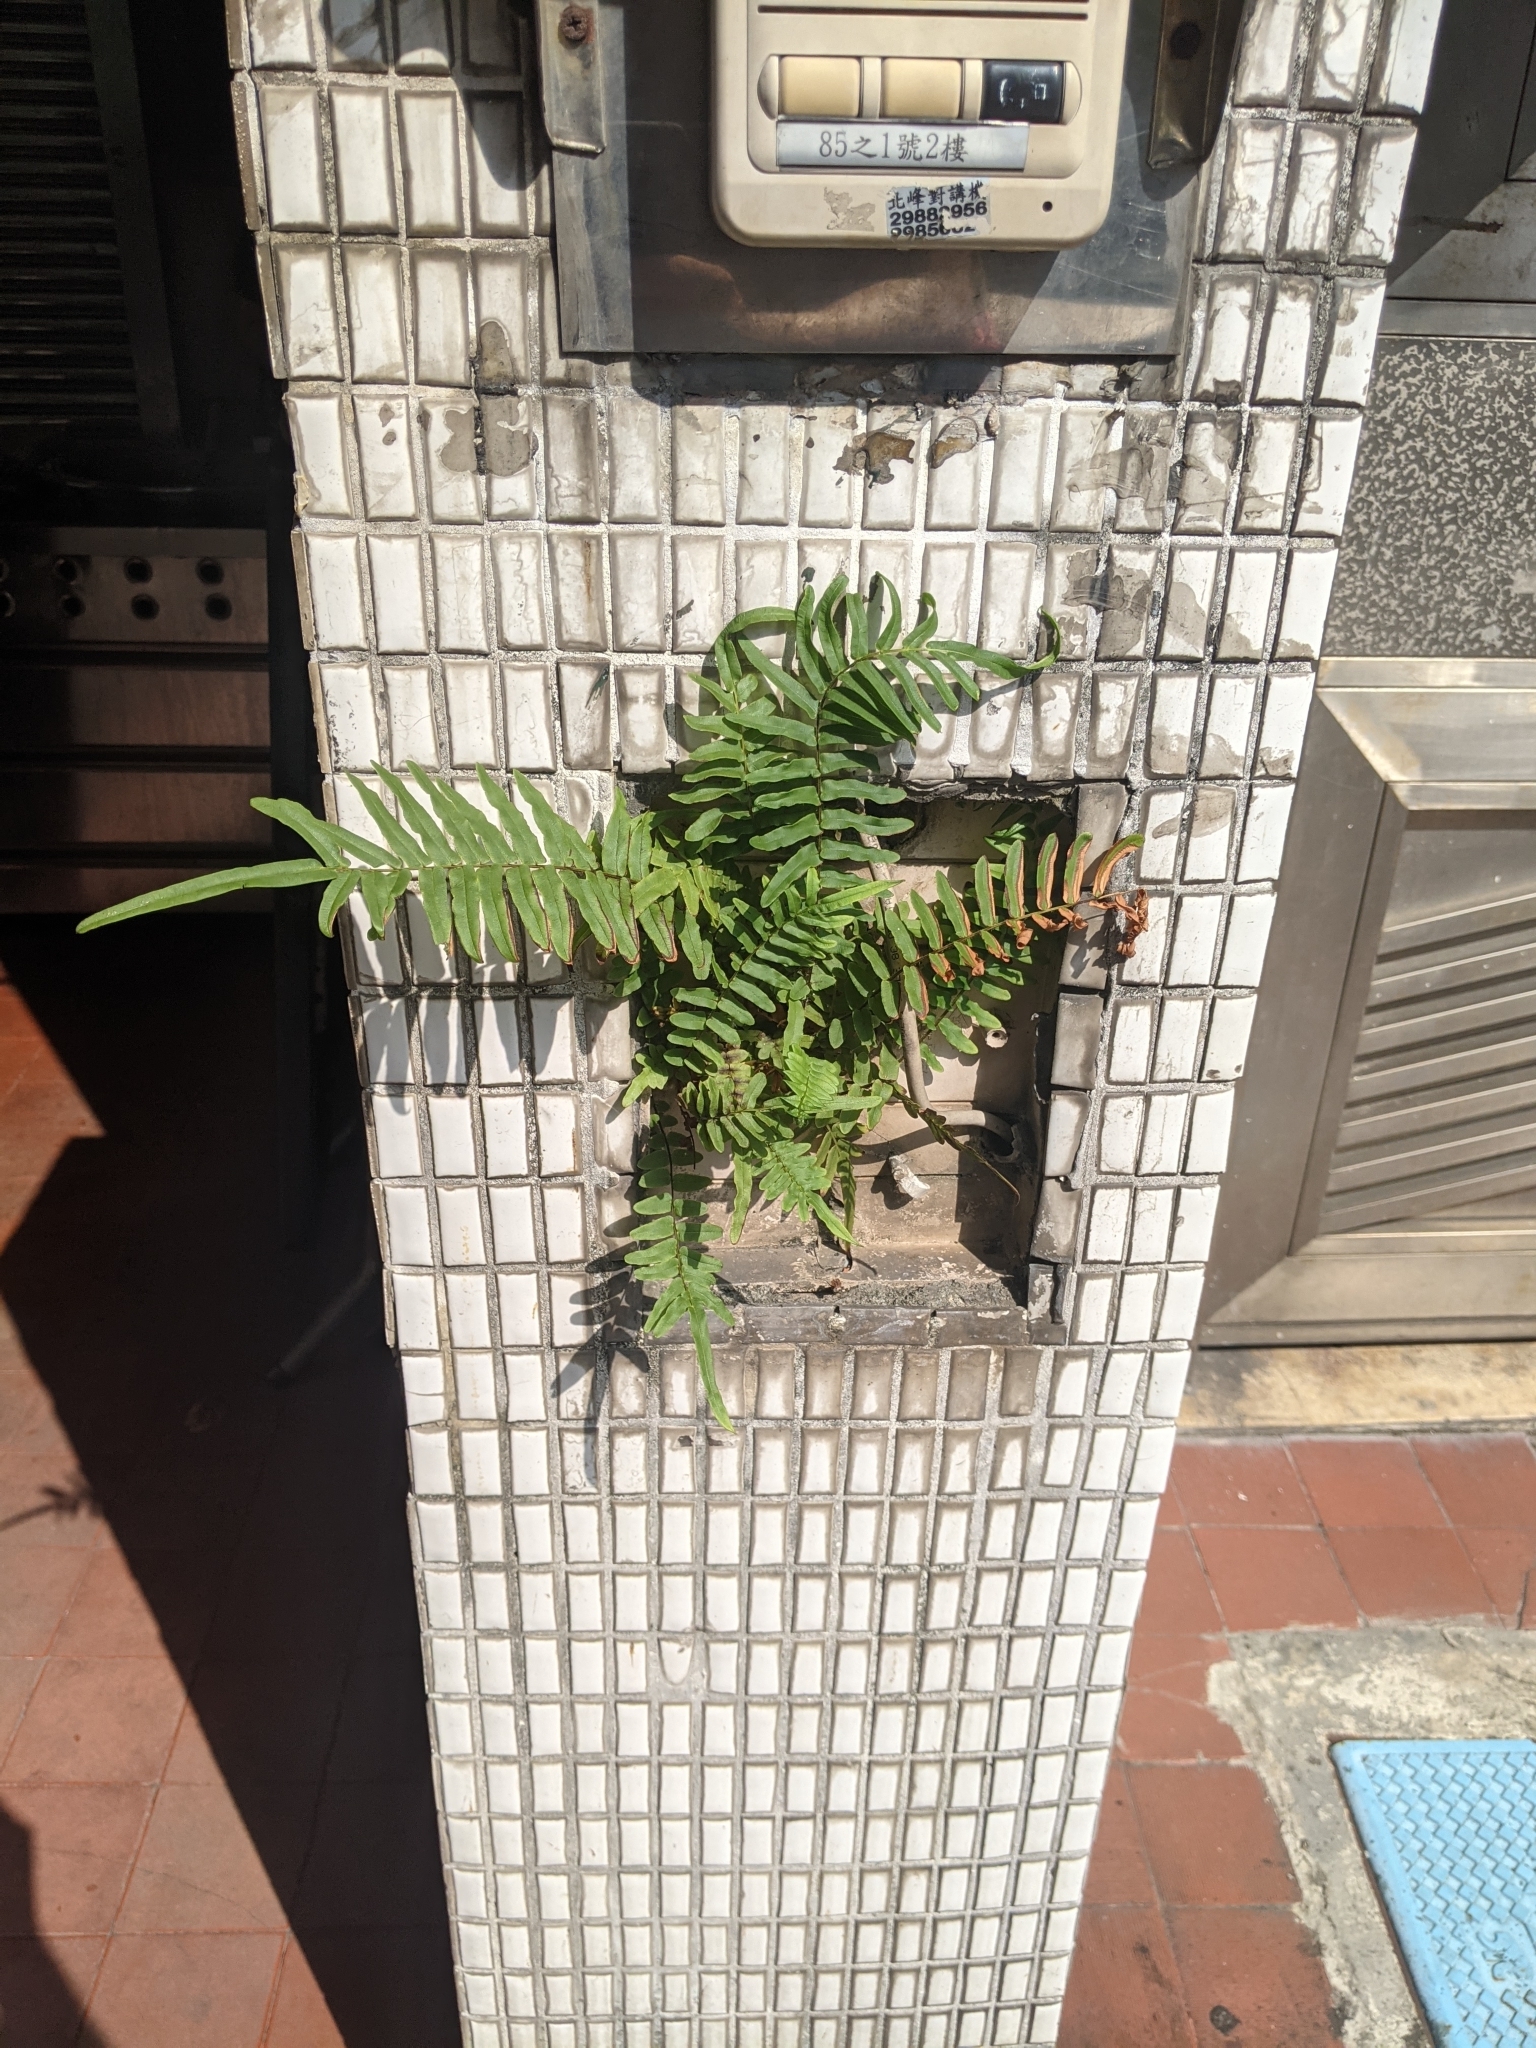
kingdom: Plantae
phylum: Tracheophyta
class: Polypodiopsida
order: Polypodiales
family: Pteridaceae
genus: Pteris
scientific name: Pteris vittata
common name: Ladder brake
